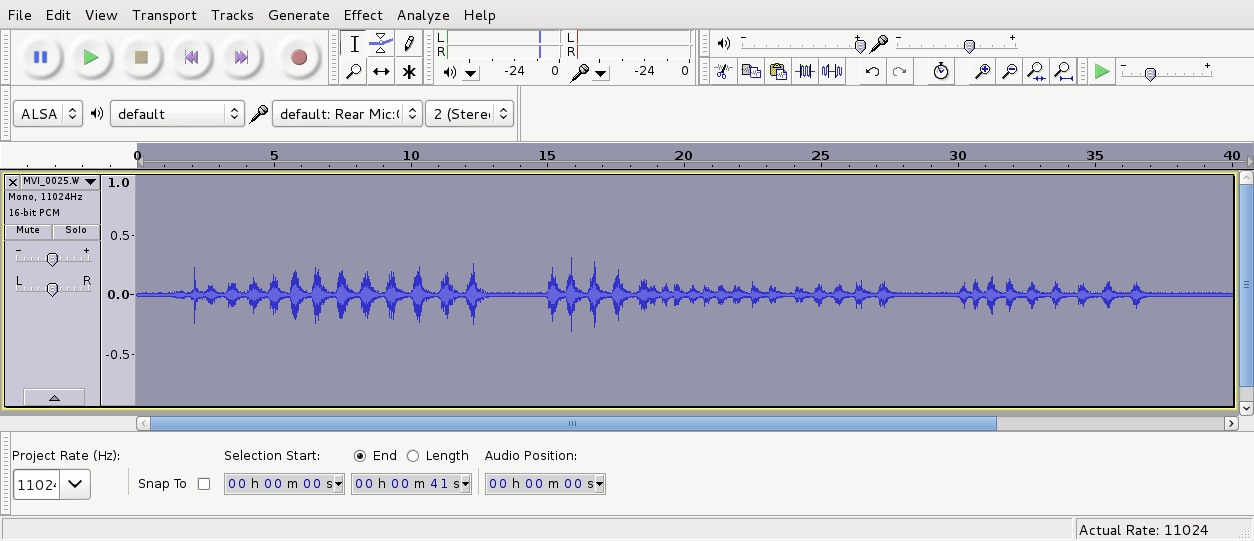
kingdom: Animalia
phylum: Chordata
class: Aves
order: Apterygiformes
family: Apterygidae
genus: Apteryx
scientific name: Apteryx owenii
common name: Little spotted kiwi
